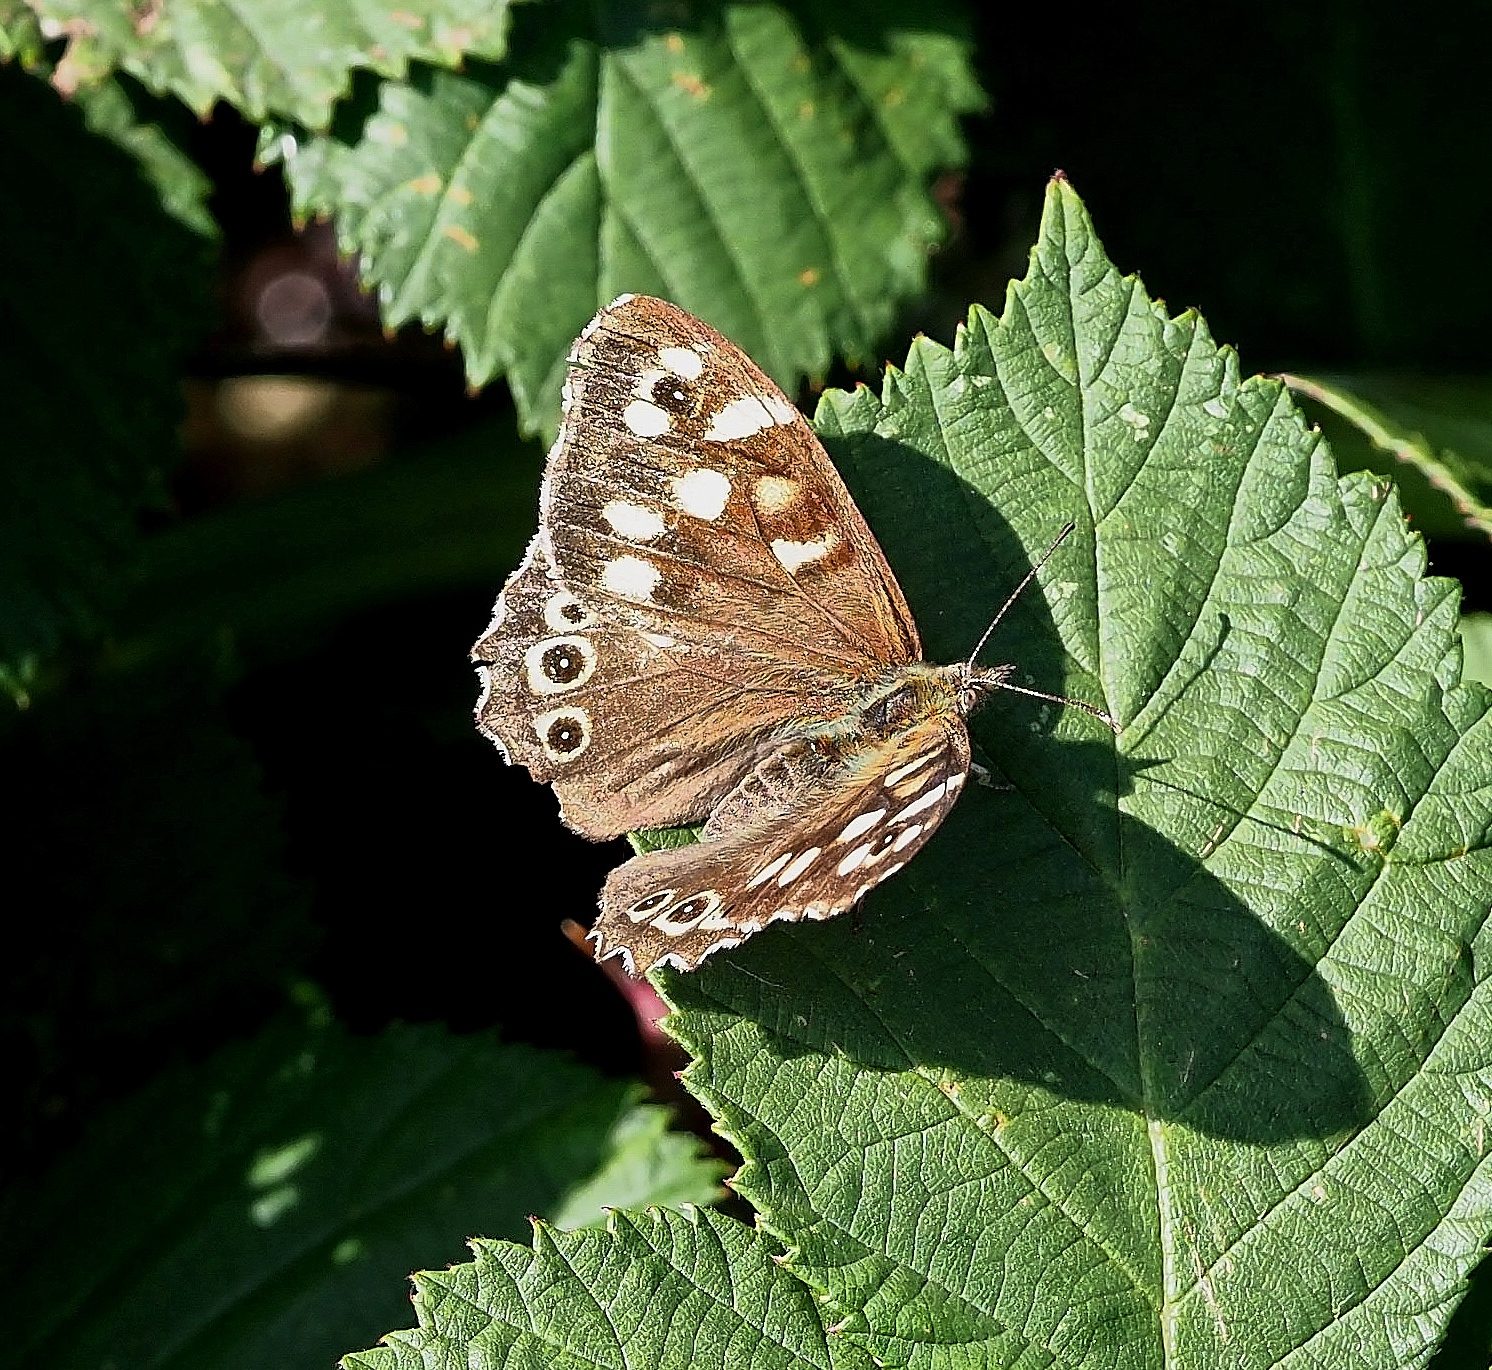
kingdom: Animalia
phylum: Arthropoda
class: Insecta
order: Lepidoptera
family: Nymphalidae
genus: Pararge
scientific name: Pararge aegeria
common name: Speckled wood
